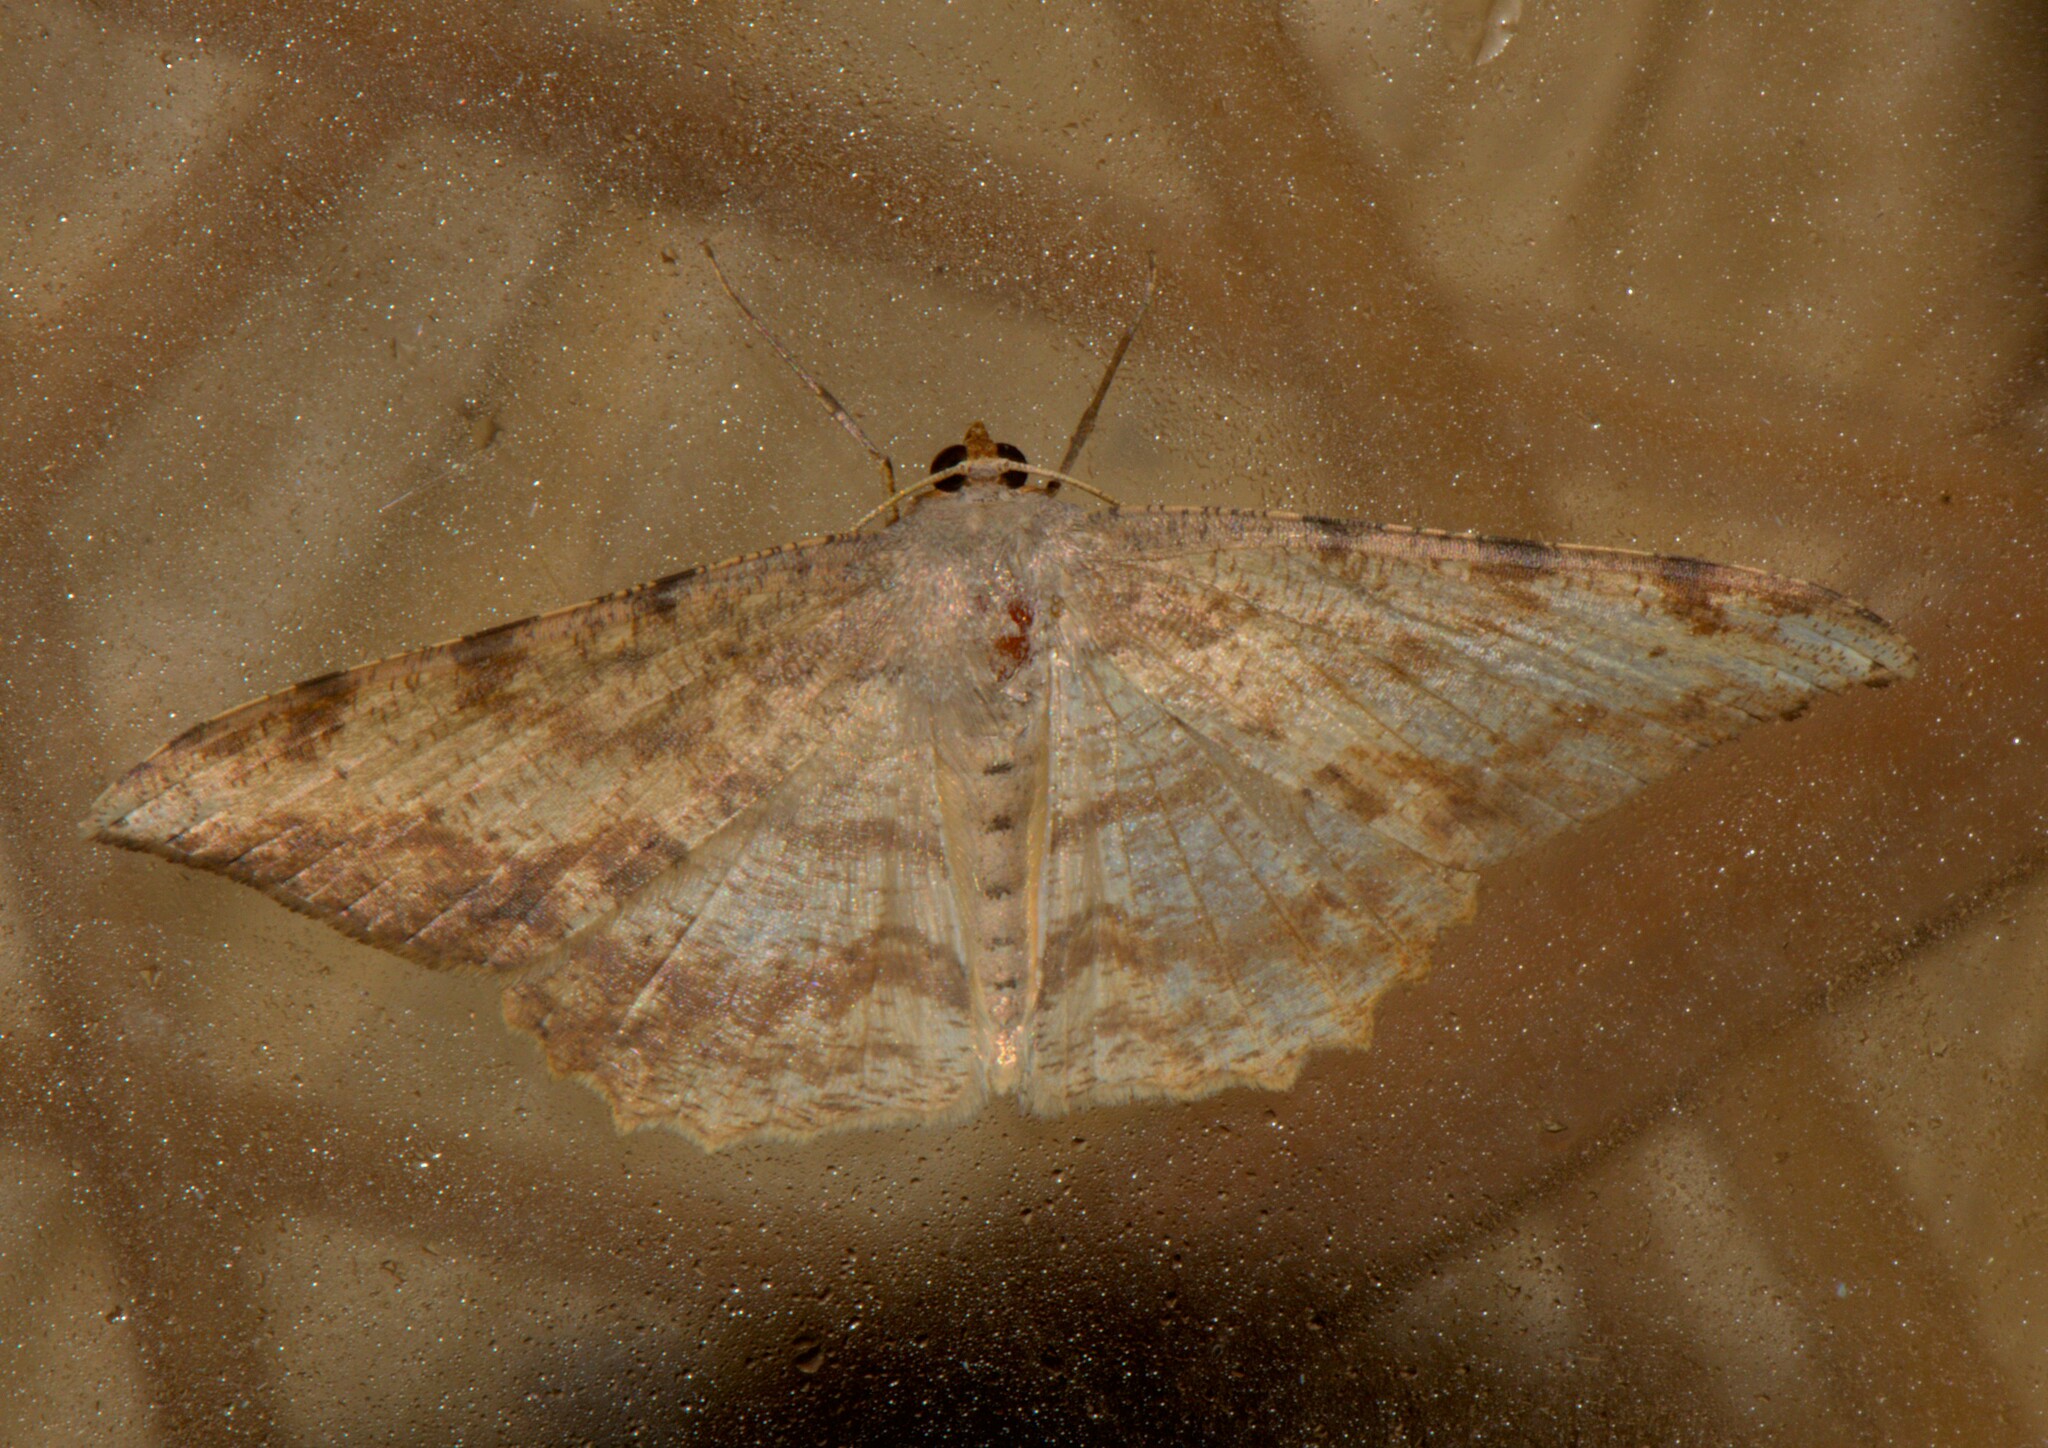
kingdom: Animalia
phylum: Arthropoda
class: Insecta
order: Lepidoptera
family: Geometridae
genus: Luxiaria
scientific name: Luxiaria amasa
